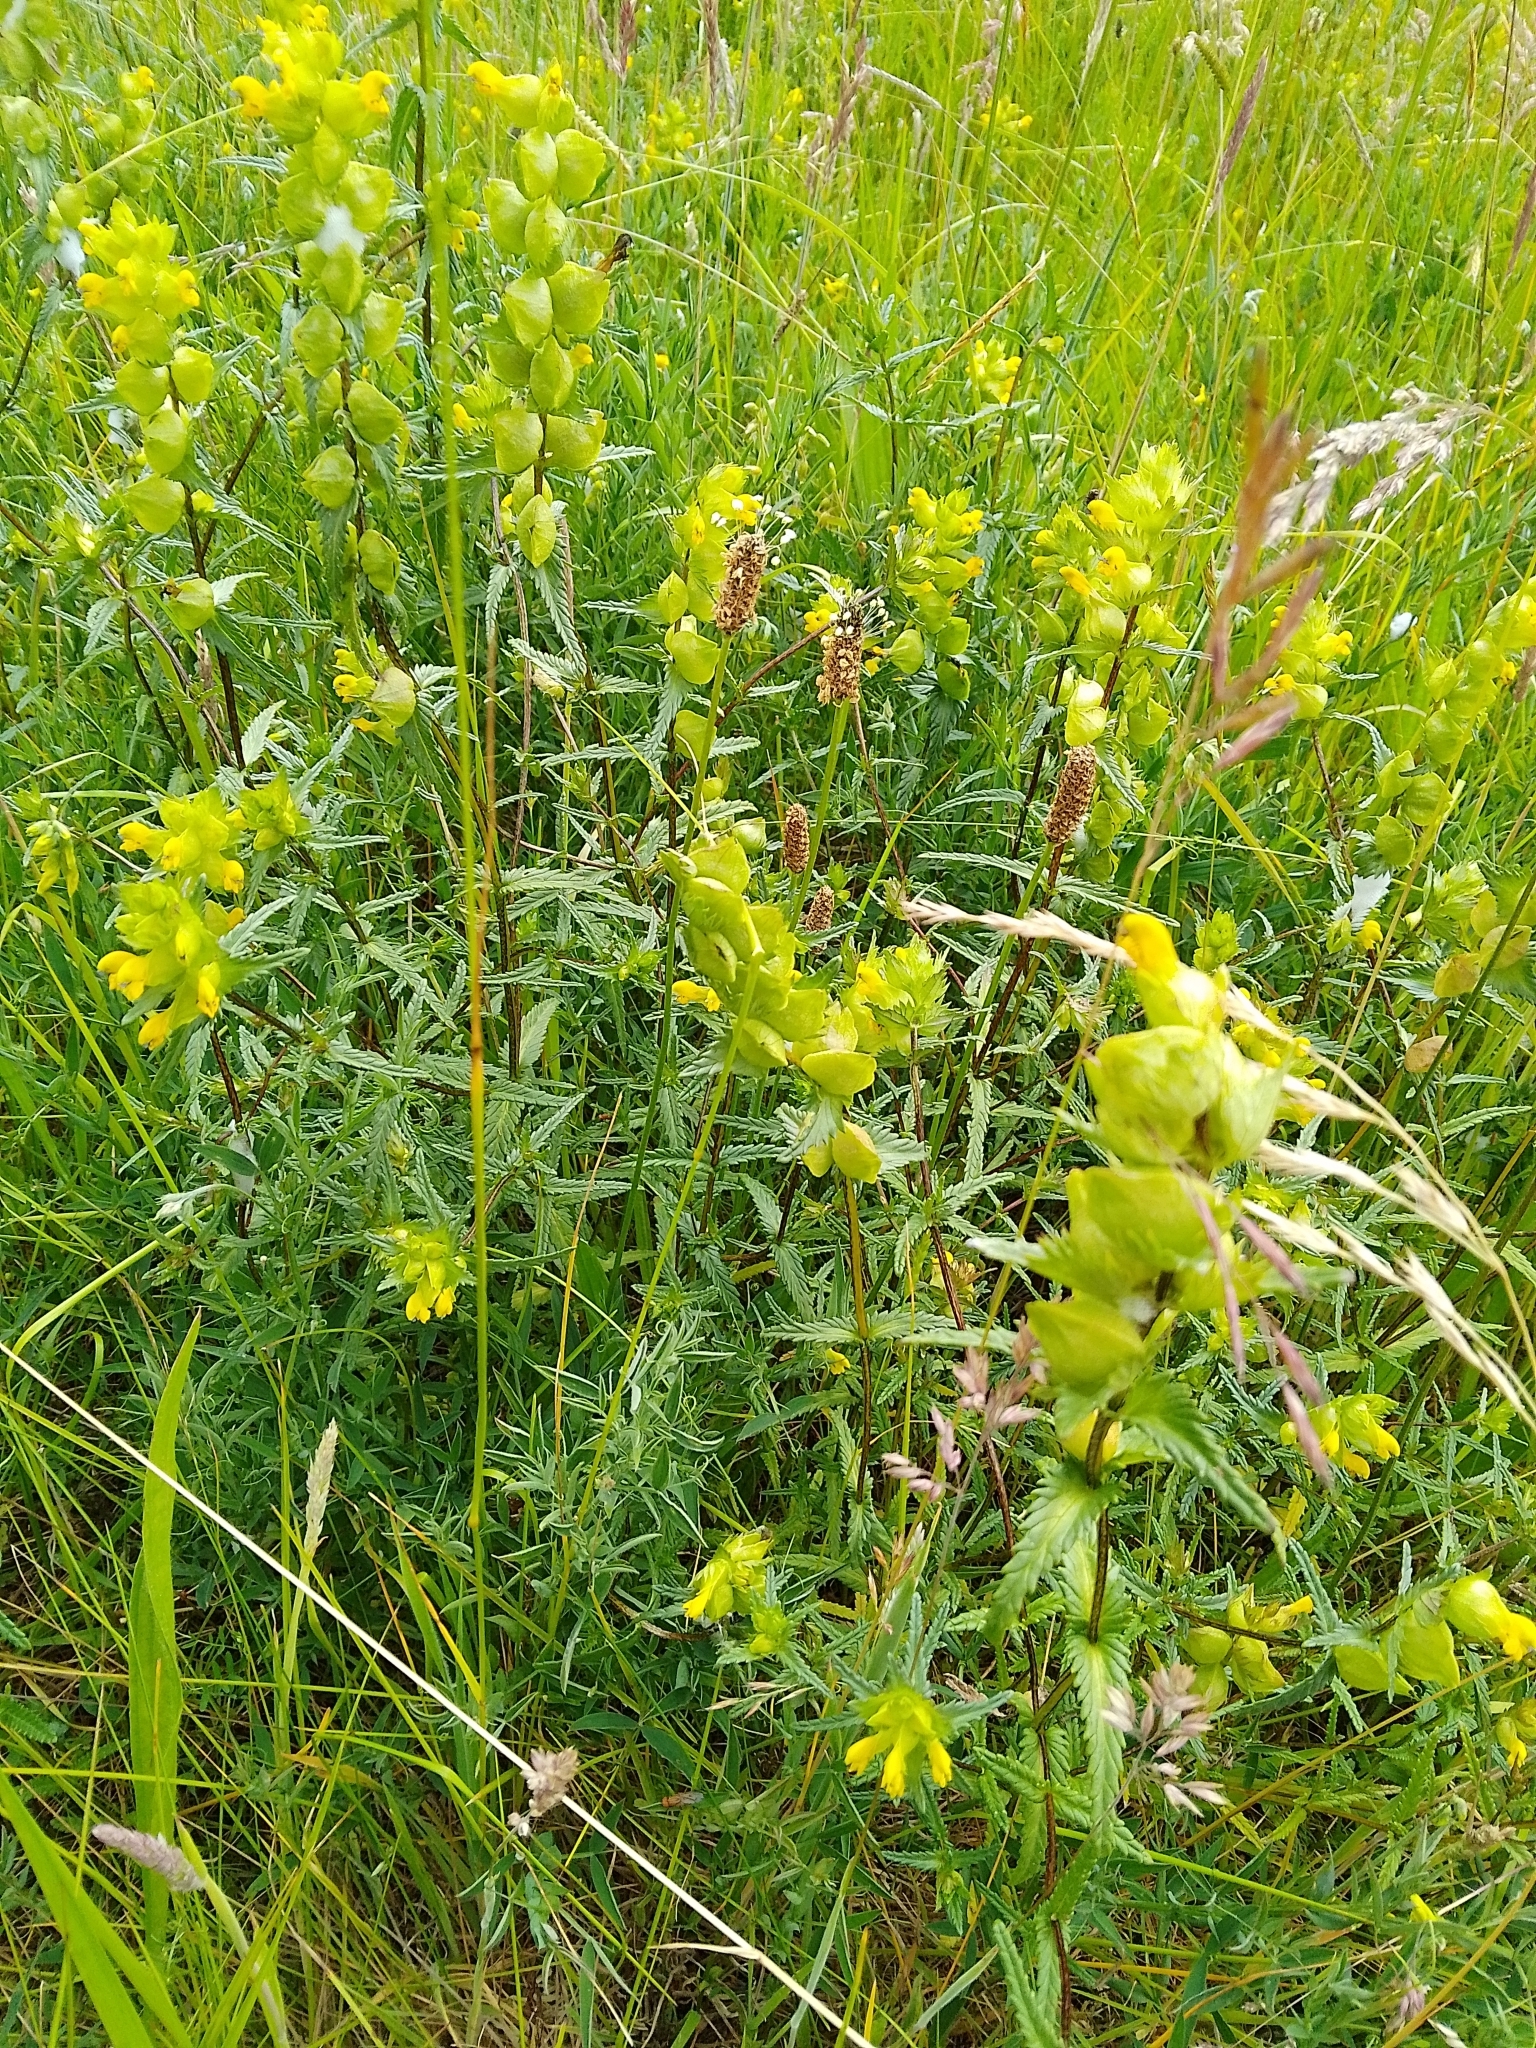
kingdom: Plantae
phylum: Tracheophyta
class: Magnoliopsida
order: Lamiales
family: Orobanchaceae
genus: Rhinanthus
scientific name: Rhinanthus minor
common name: Yellow-rattle
